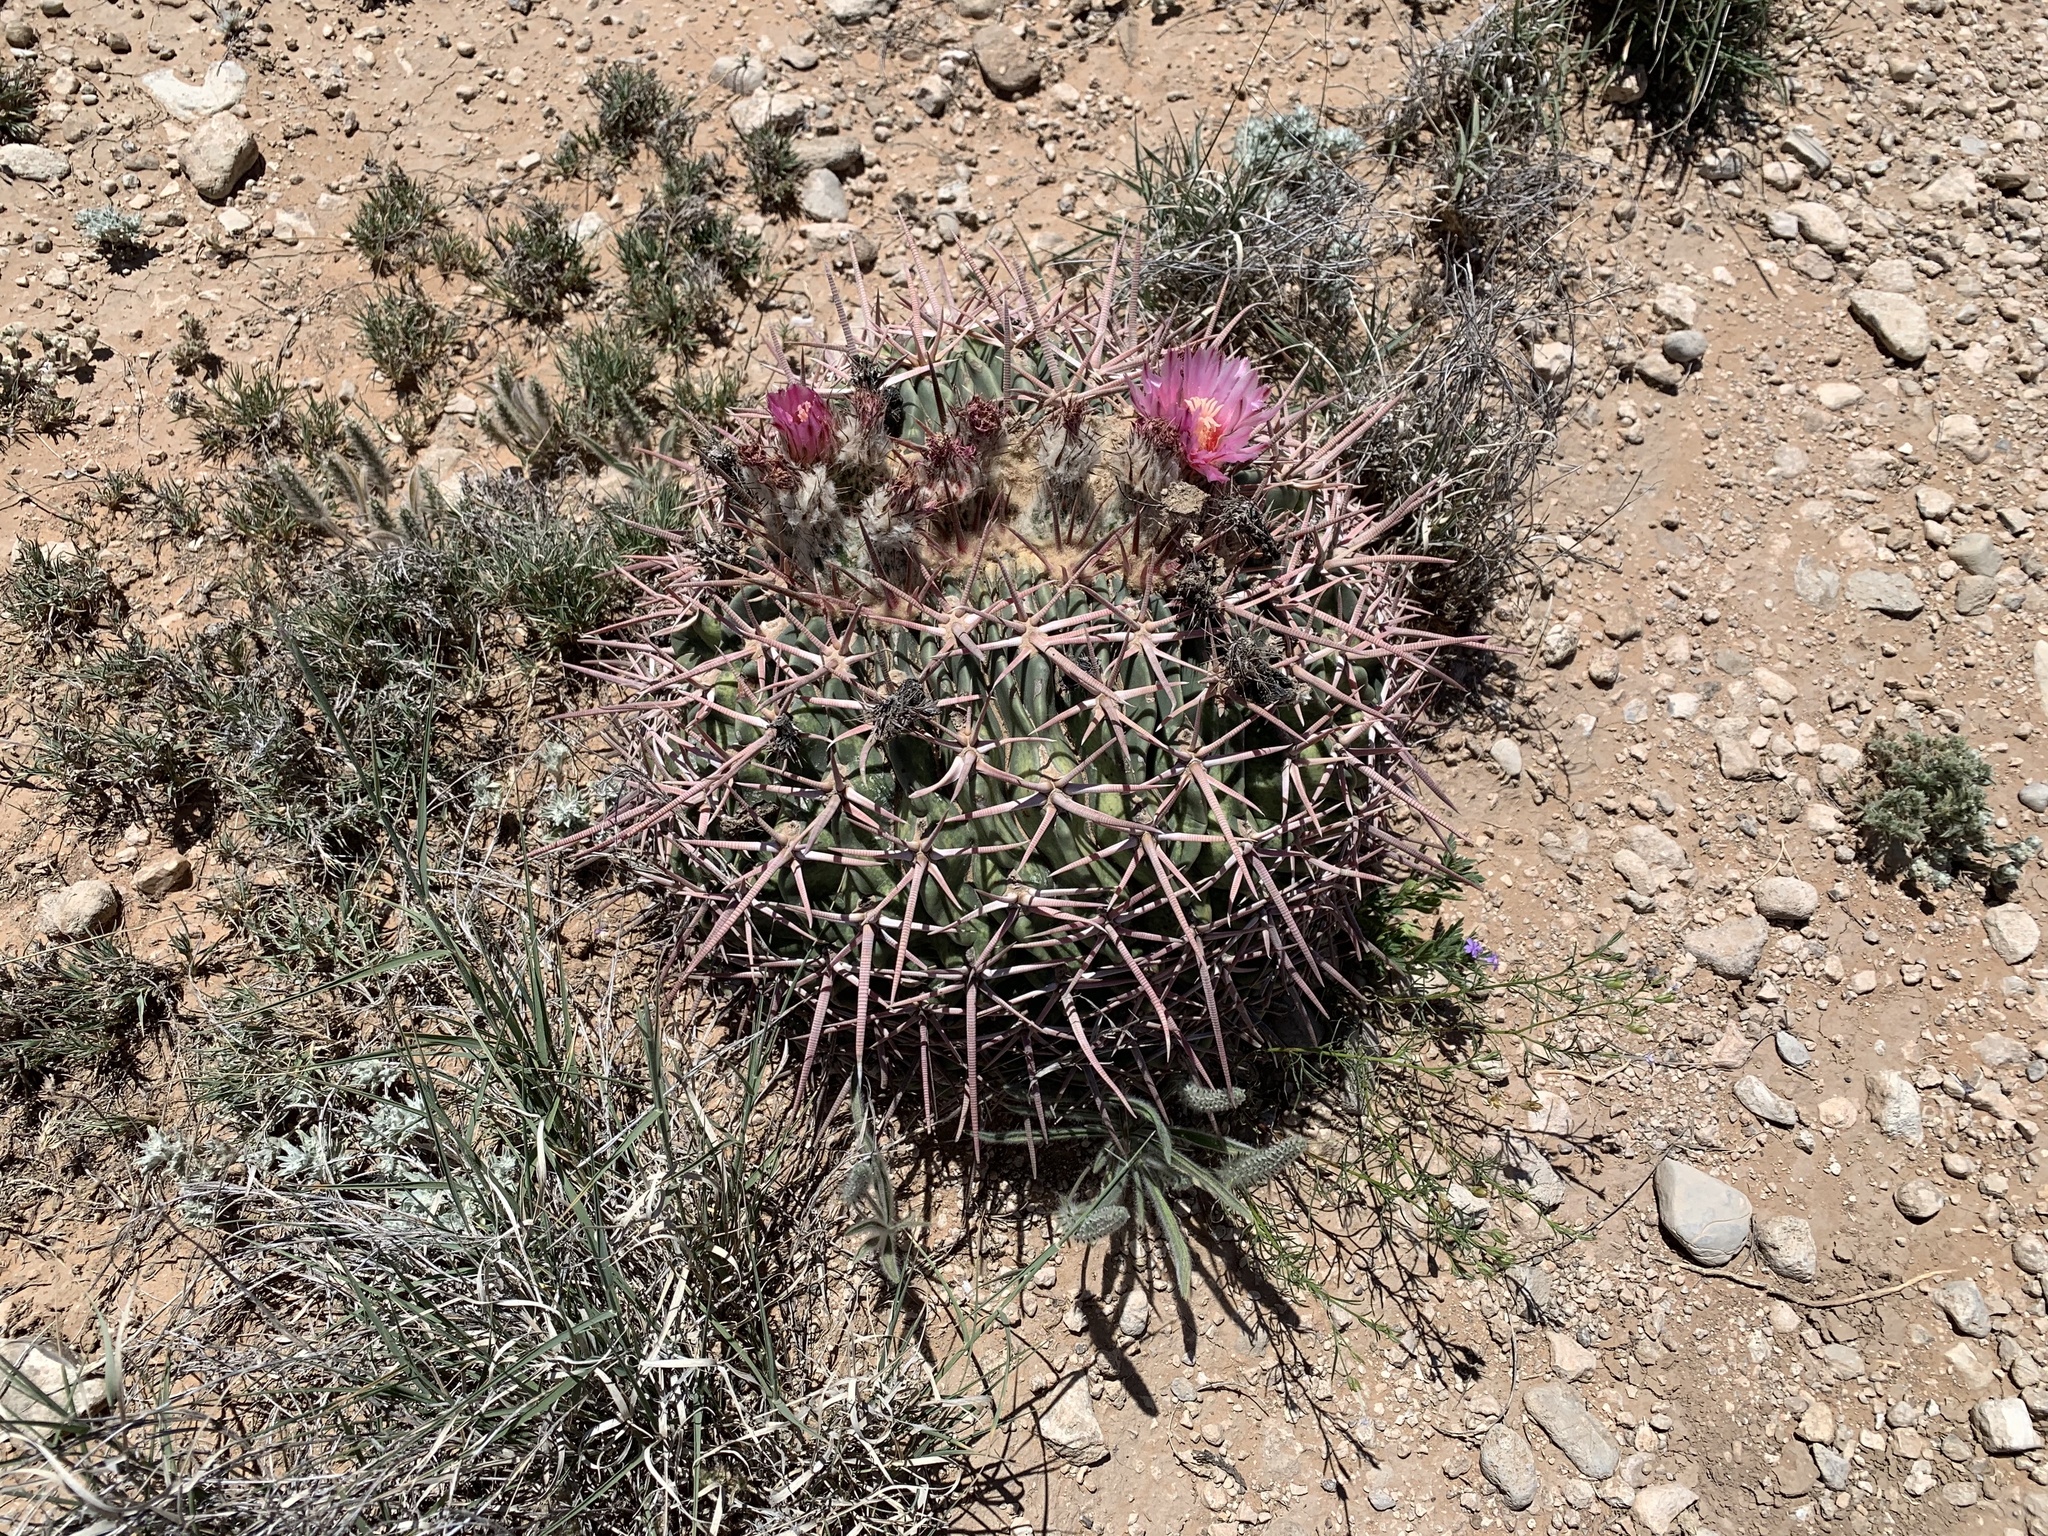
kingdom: Plantae
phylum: Tracheophyta
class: Magnoliopsida
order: Caryophyllales
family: Cactaceae
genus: Echinocactus
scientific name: Echinocactus texensis
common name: Devil's pincushion
